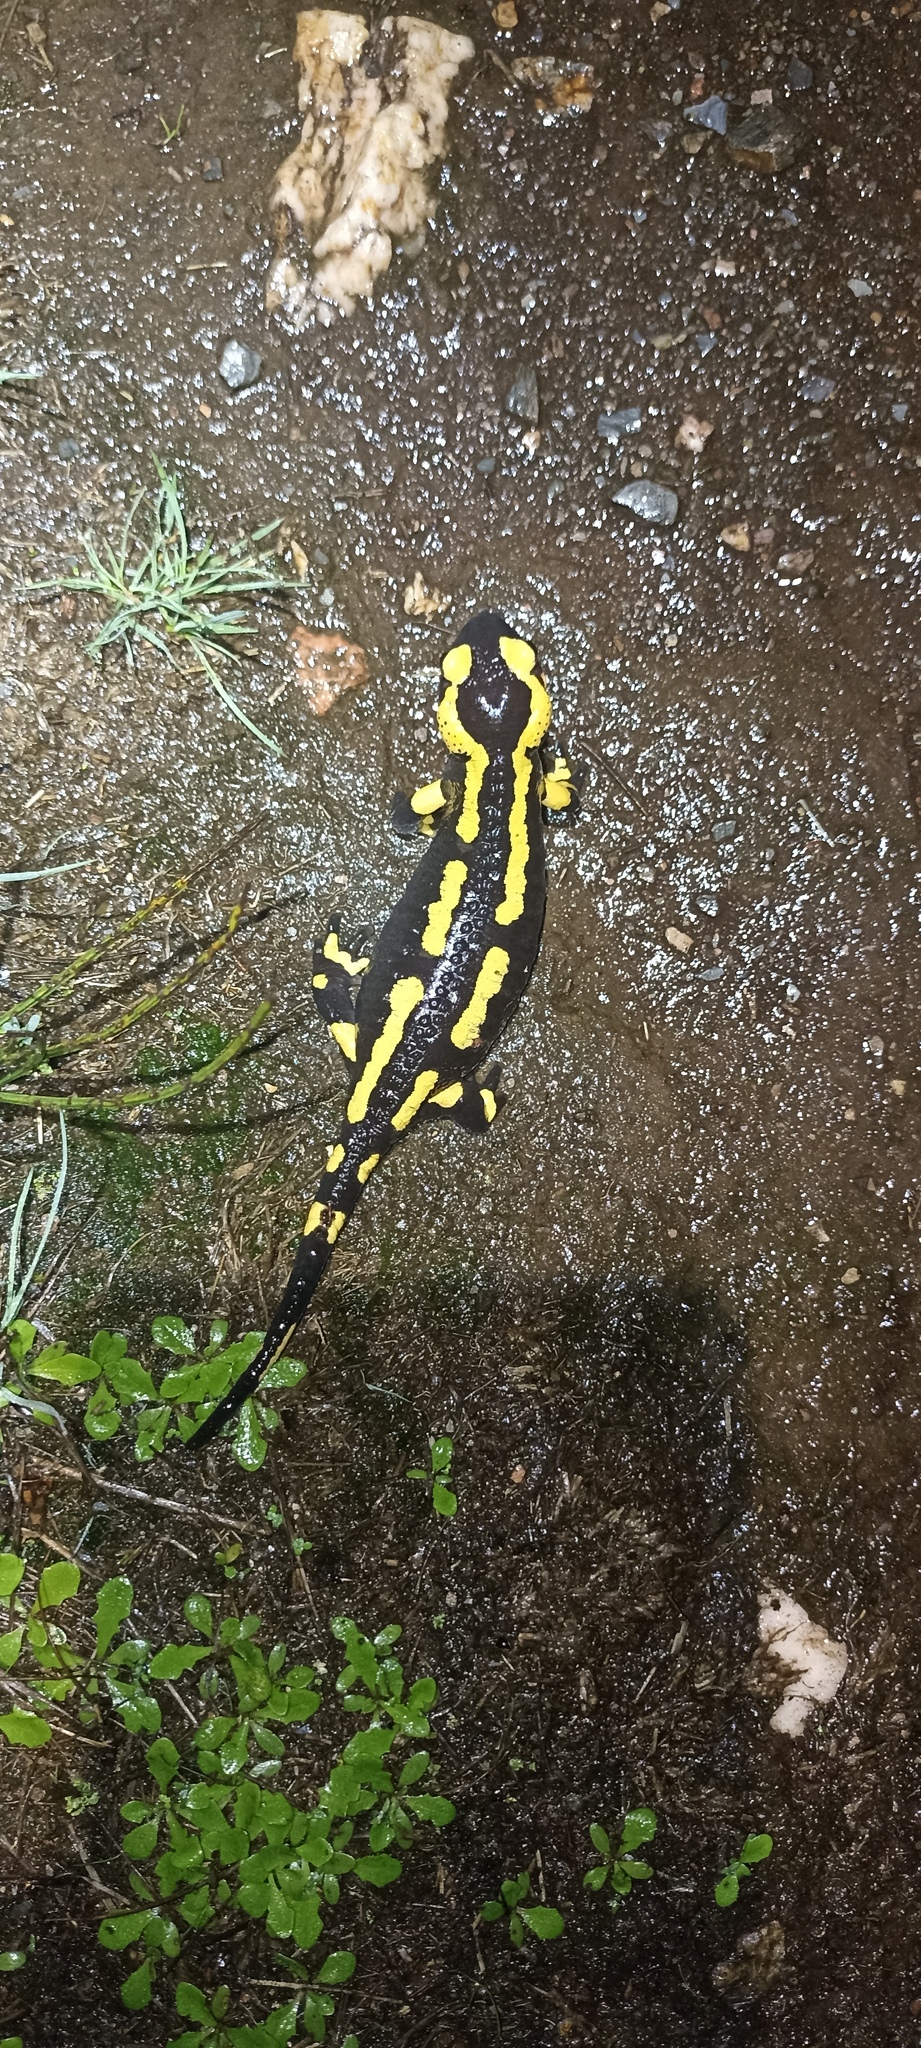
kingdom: Animalia
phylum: Chordata
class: Amphibia
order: Caudata
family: Salamandridae
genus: Salamandra
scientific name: Salamandra salamandra
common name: Fire salamander
